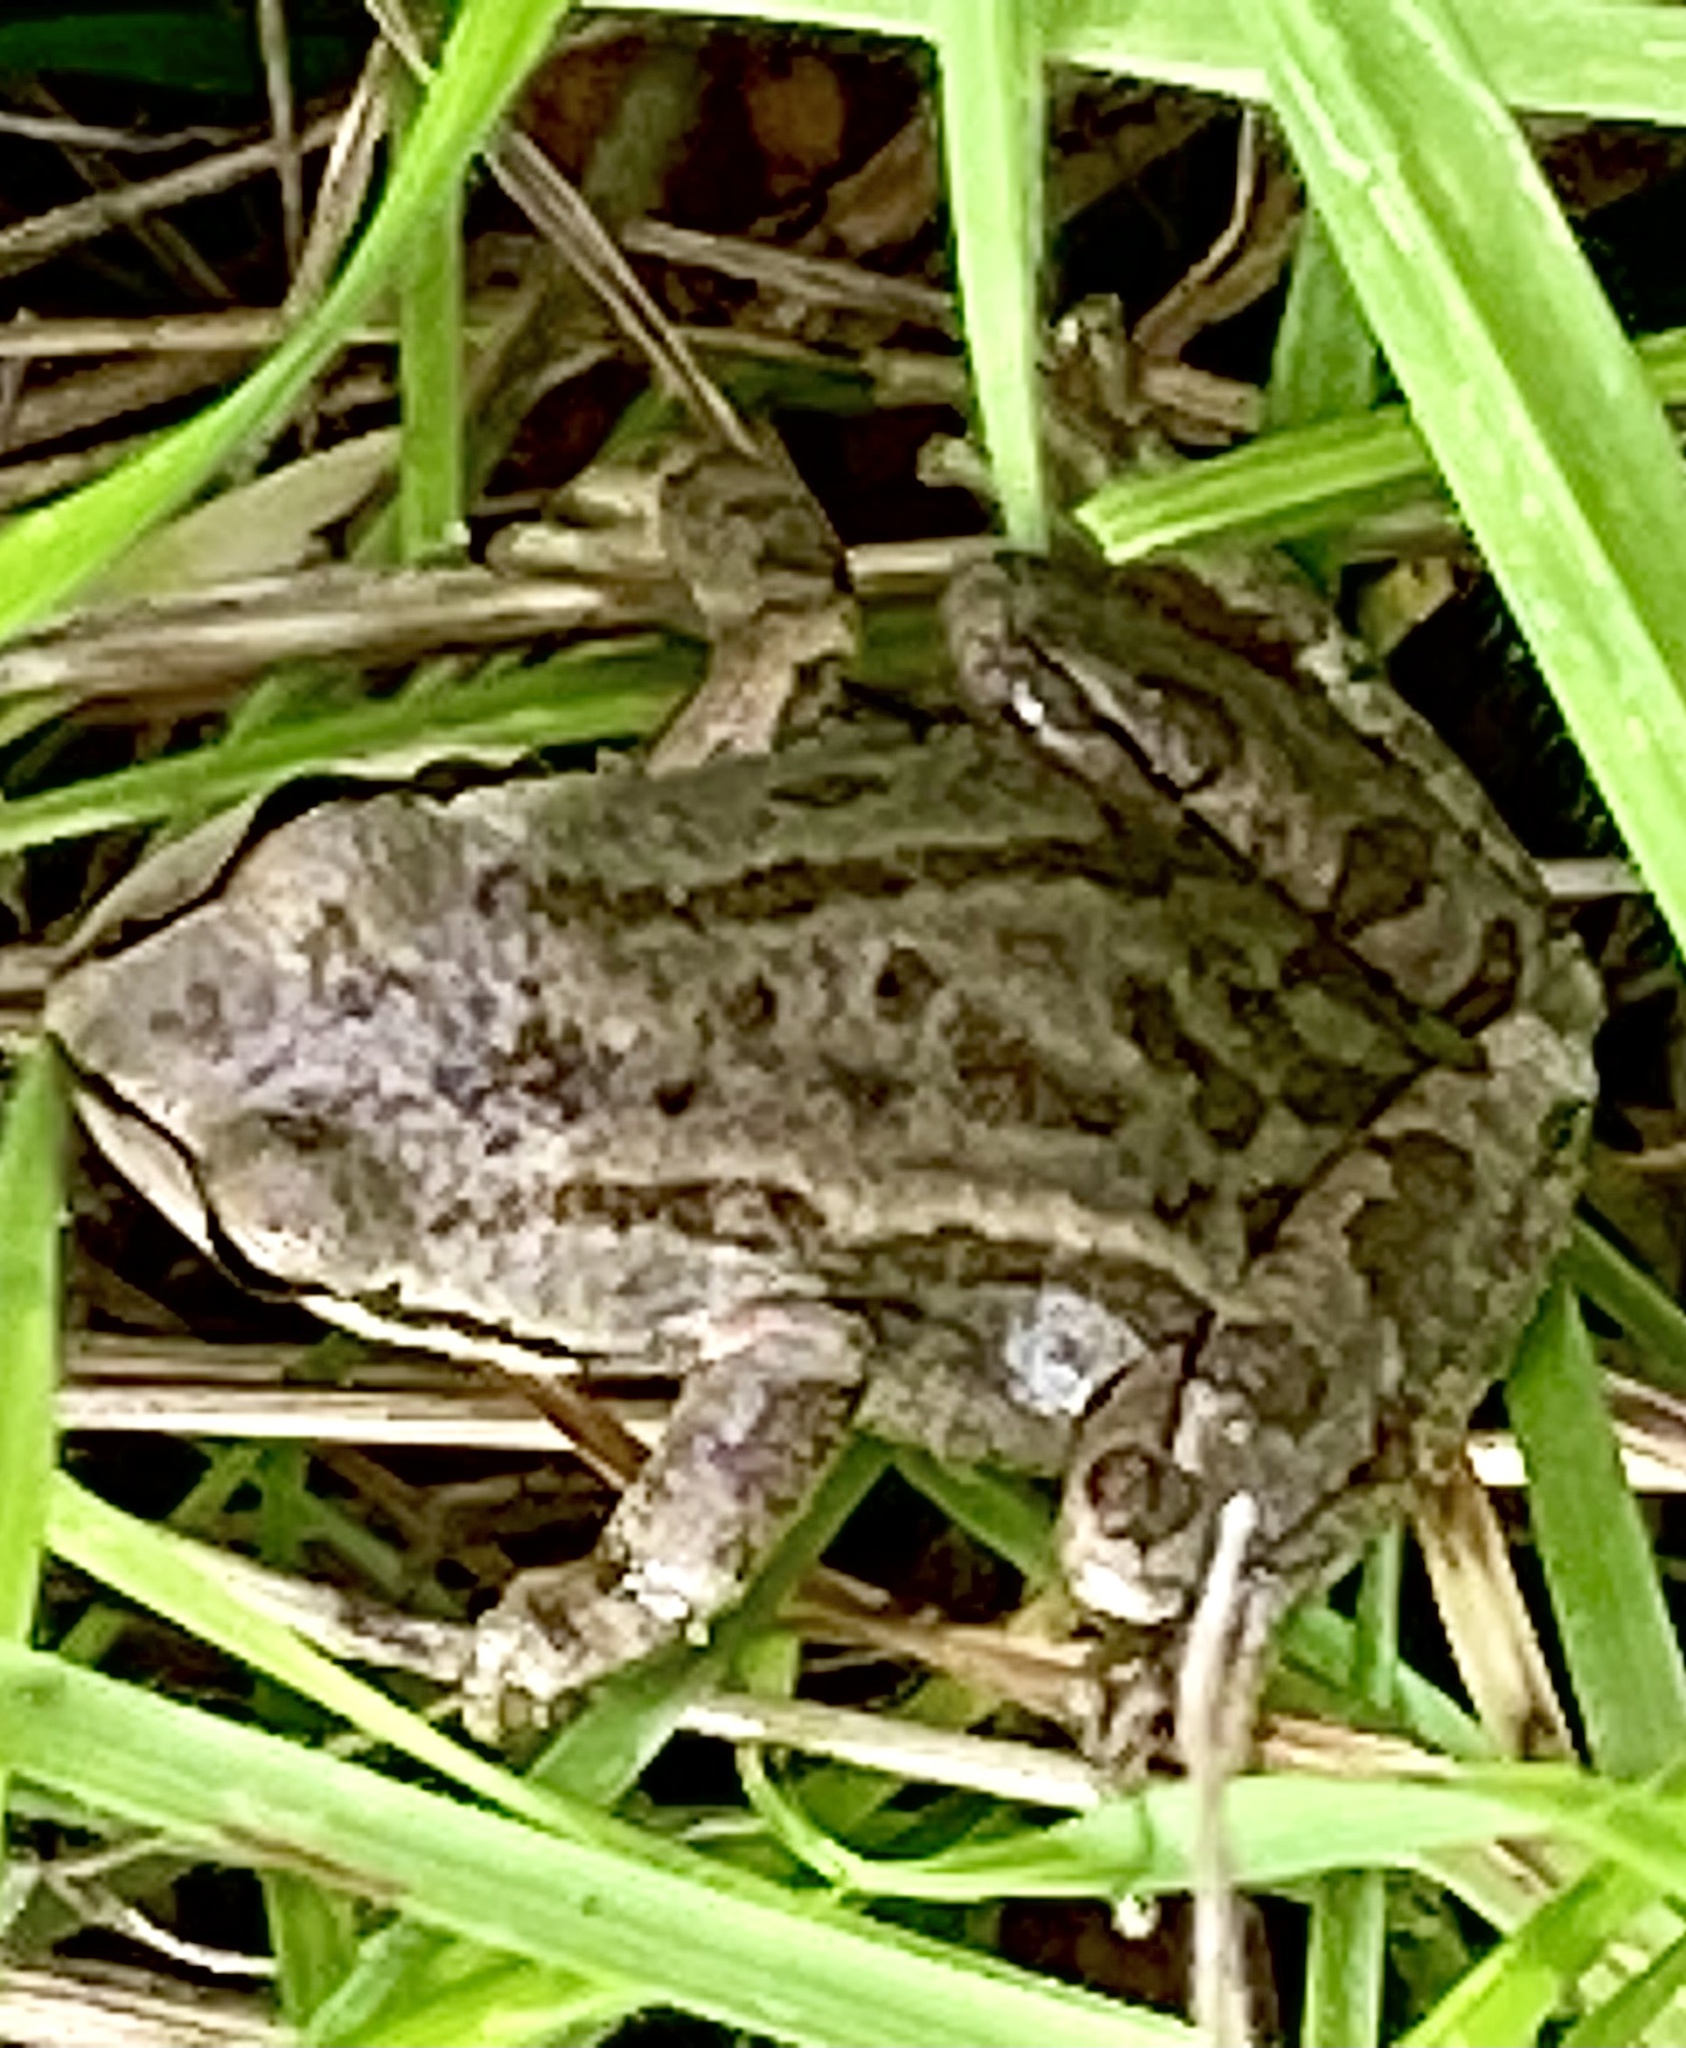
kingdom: Animalia
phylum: Chordata
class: Amphibia
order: Anura
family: Hylidae
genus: Pseudacris
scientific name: Pseudacris regilla
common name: Pacific chorus frog
